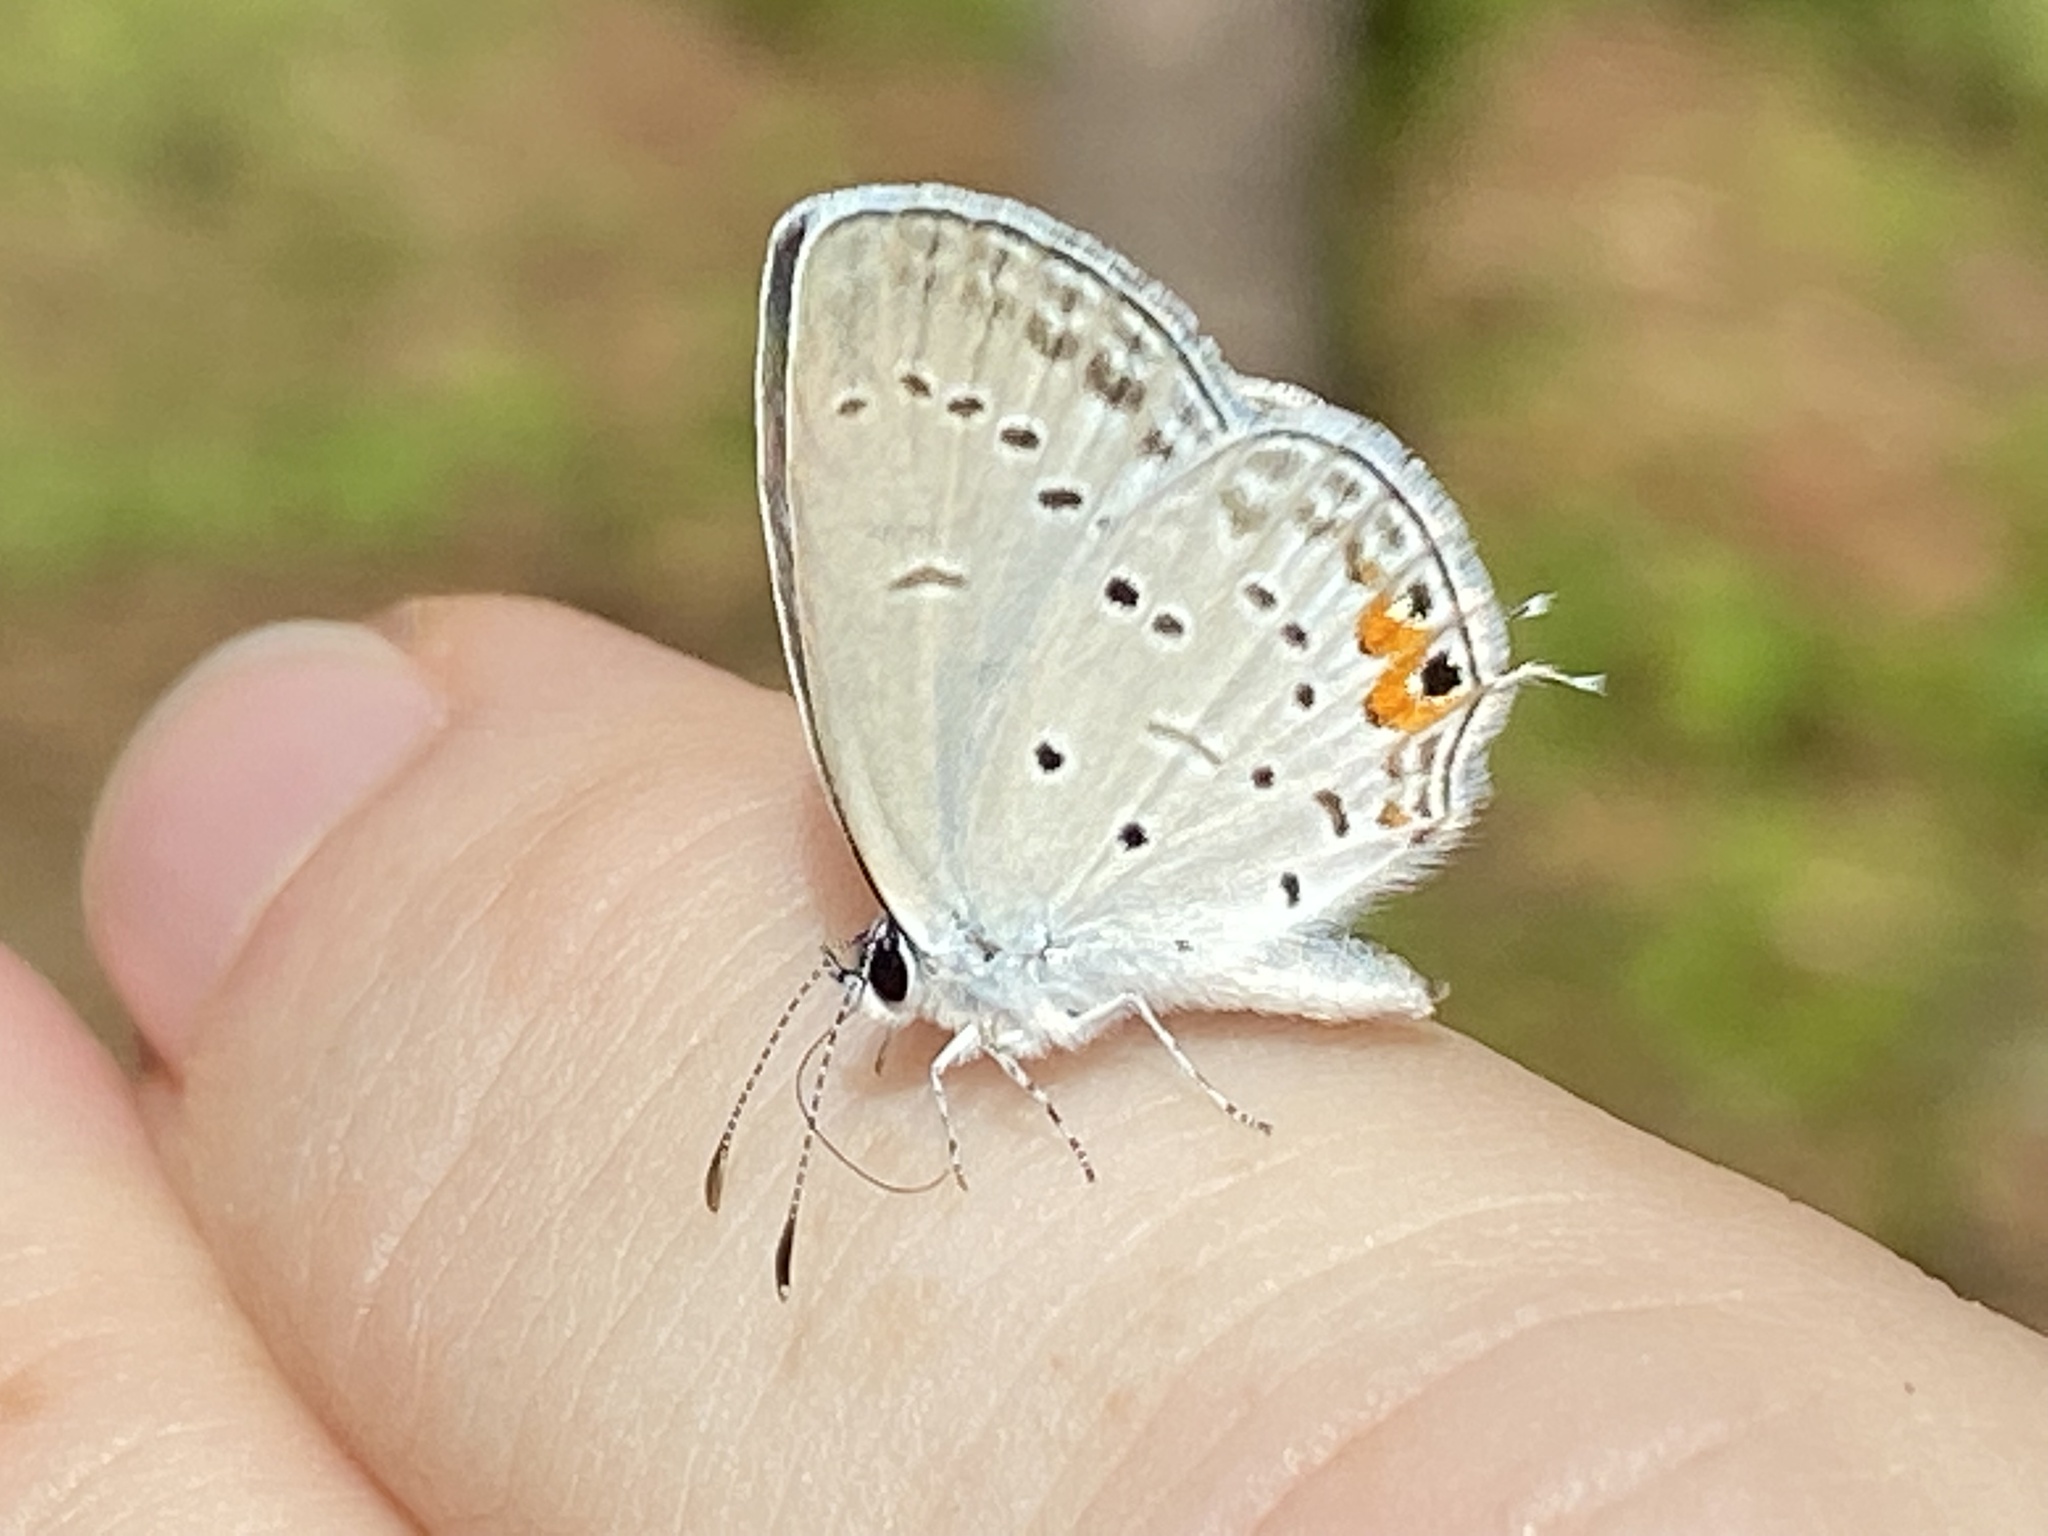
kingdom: Animalia
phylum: Arthropoda
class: Insecta
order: Lepidoptera
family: Lycaenidae
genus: Elkalyce
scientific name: Elkalyce comyntas
